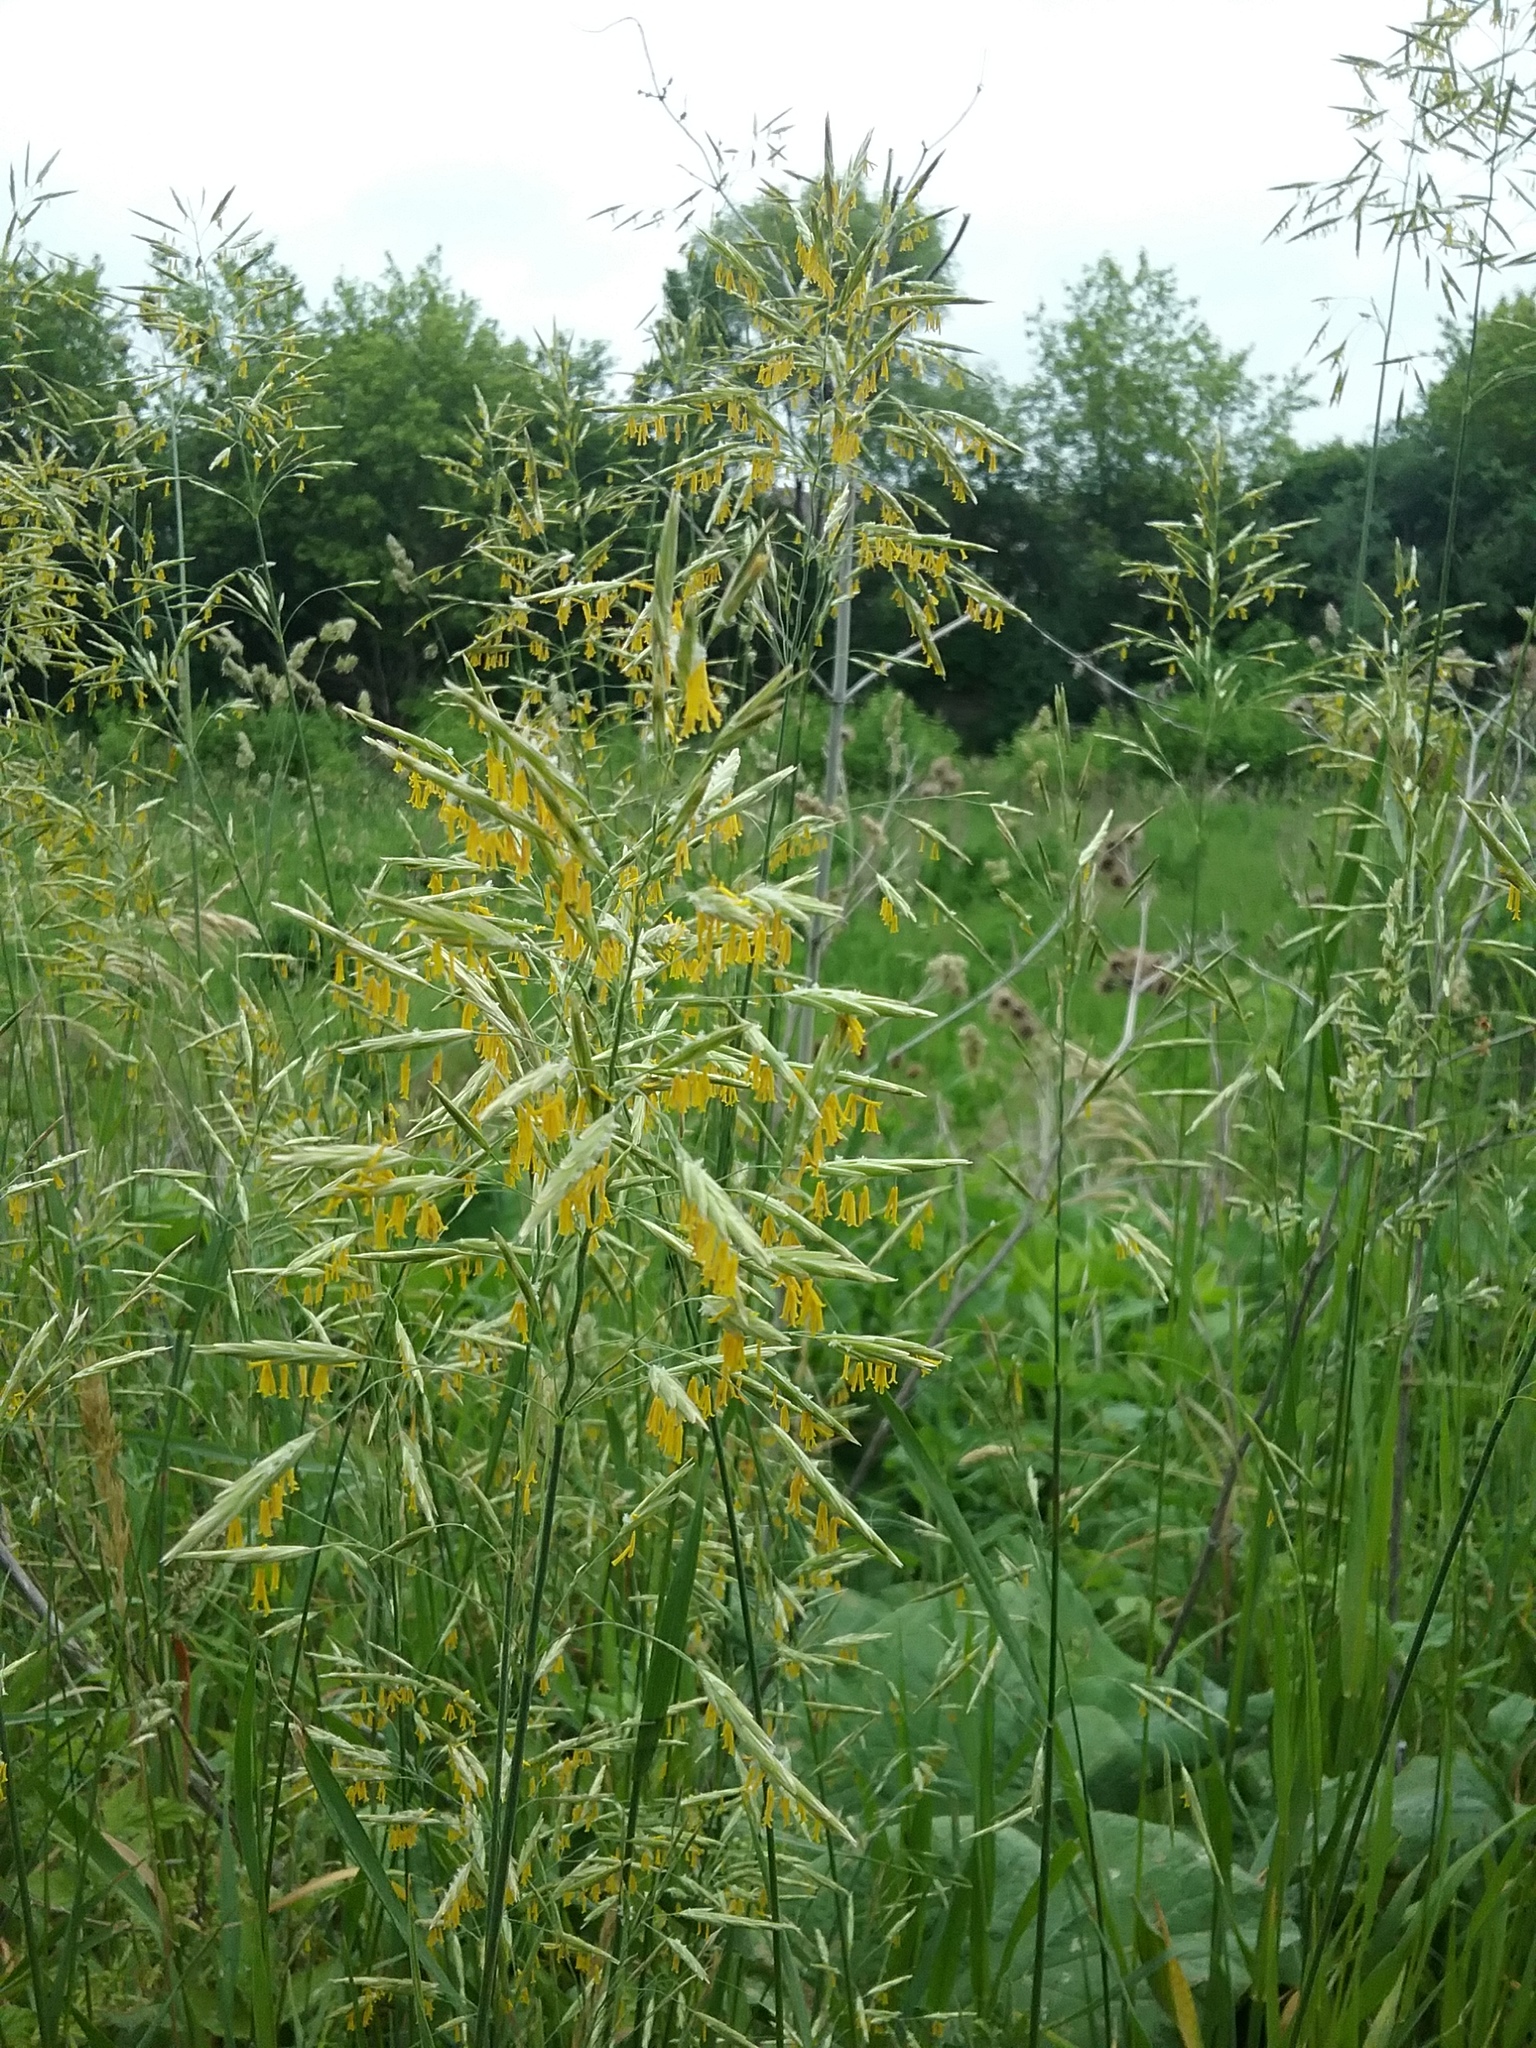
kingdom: Plantae
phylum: Tracheophyta
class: Liliopsida
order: Poales
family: Poaceae
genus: Bromus
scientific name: Bromus inermis
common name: Smooth brome
